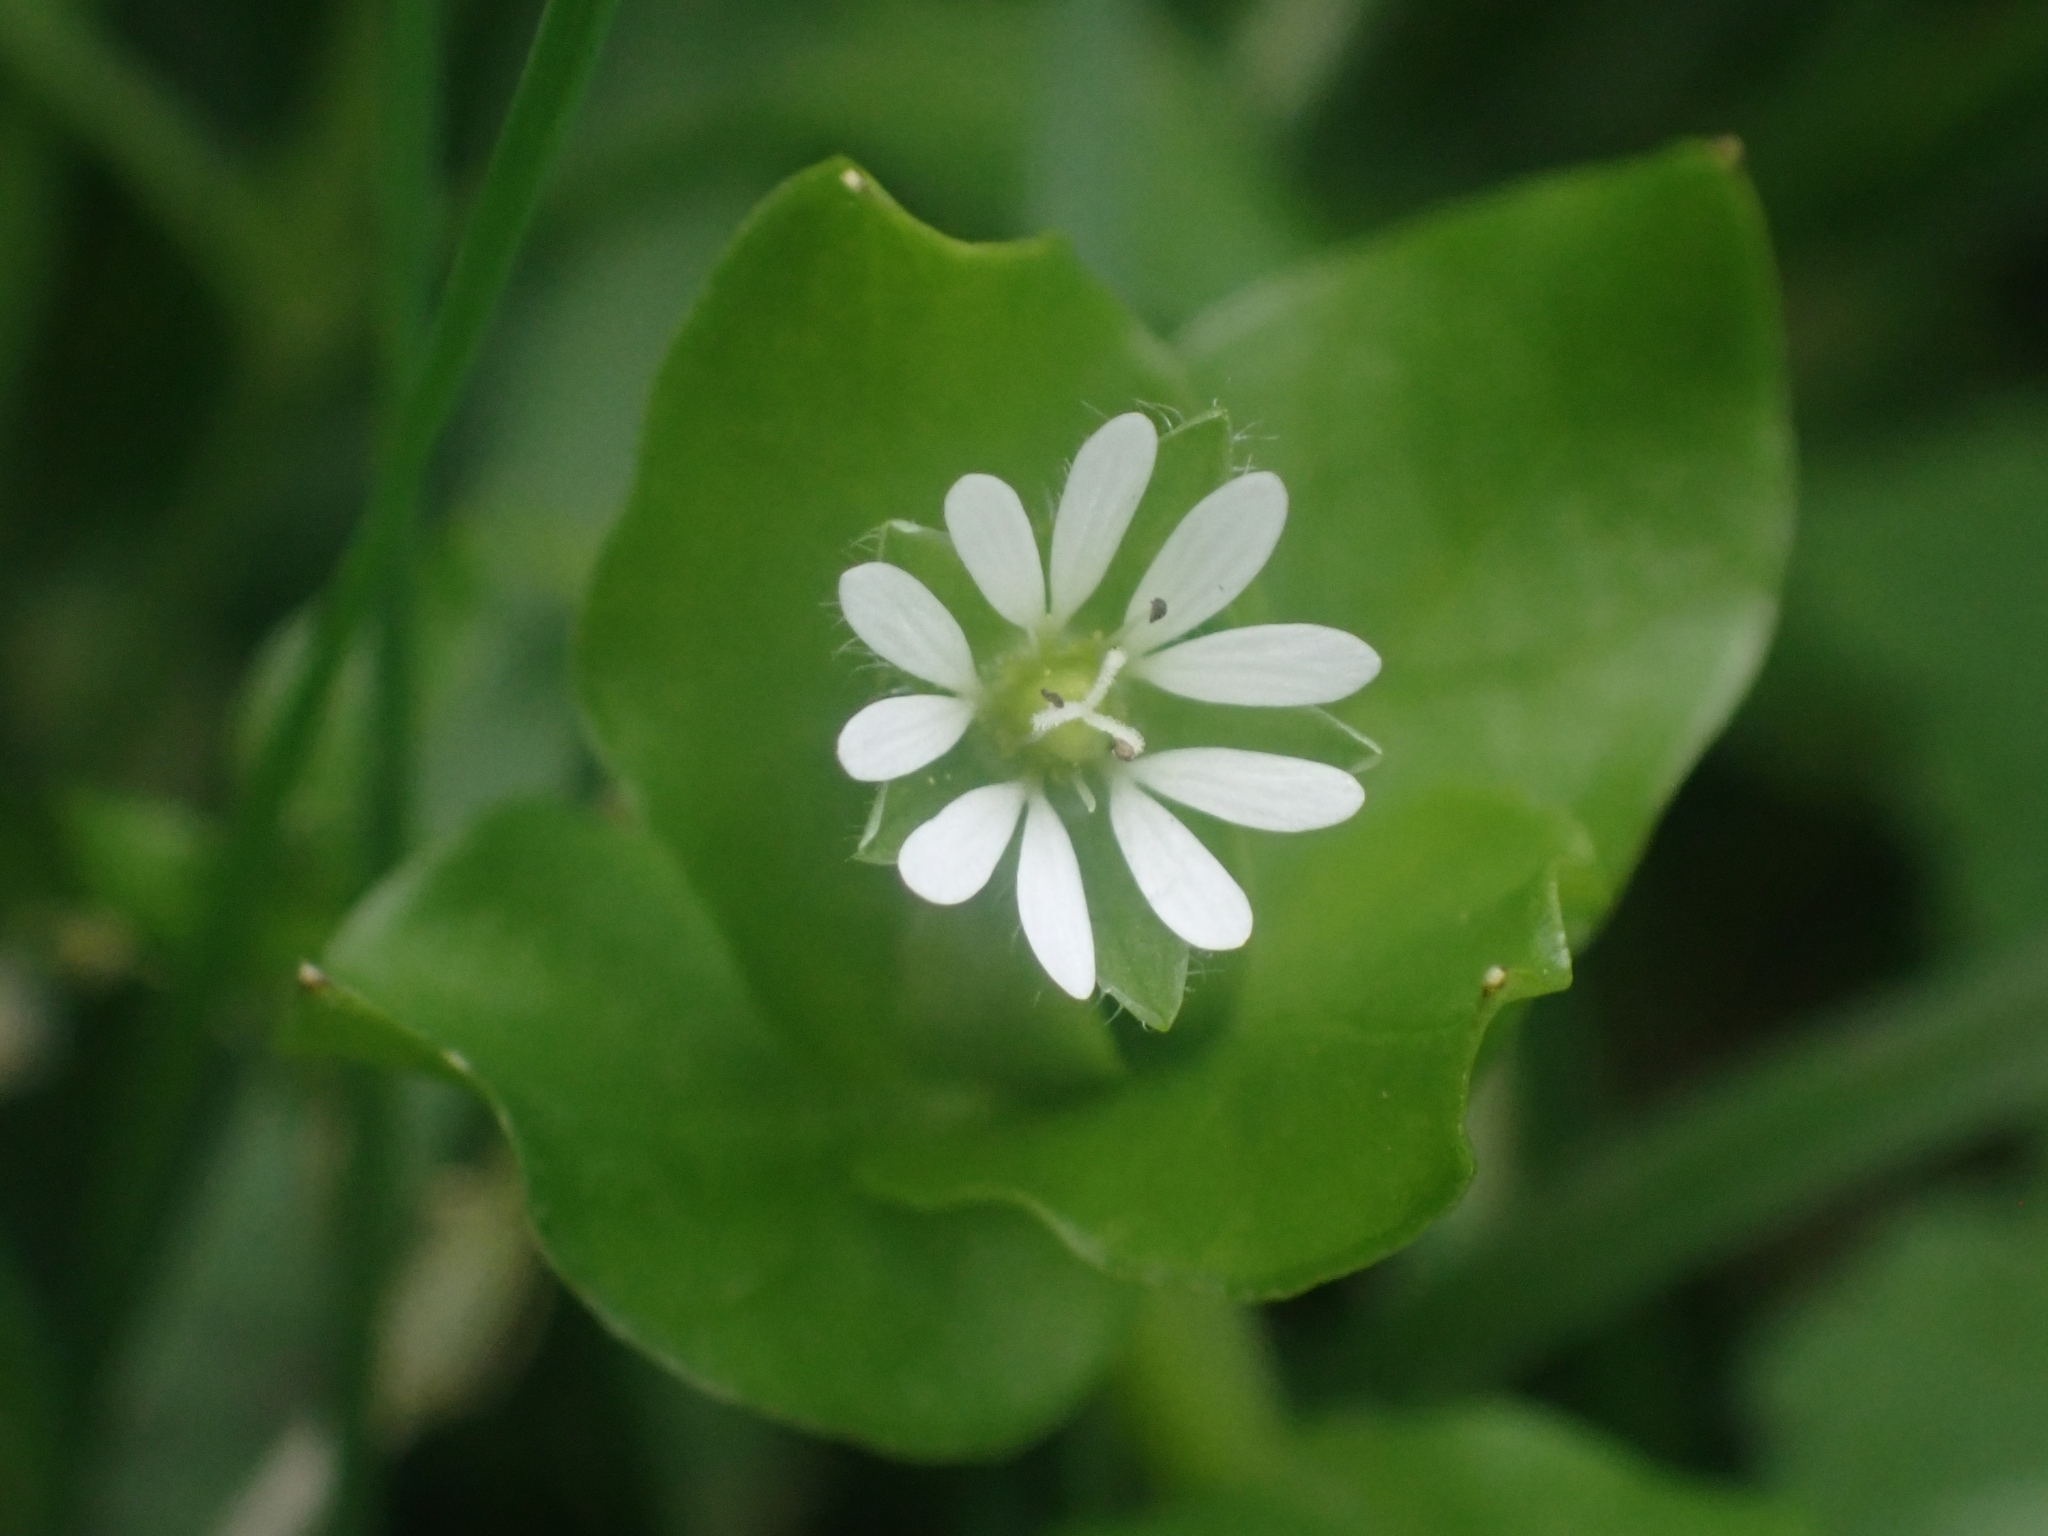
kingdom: Plantae
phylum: Tracheophyta
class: Magnoliopsida
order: Caryophyllales
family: Caryophyllaceae
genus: Stellaria
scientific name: Stellaria media
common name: Common chickweed
